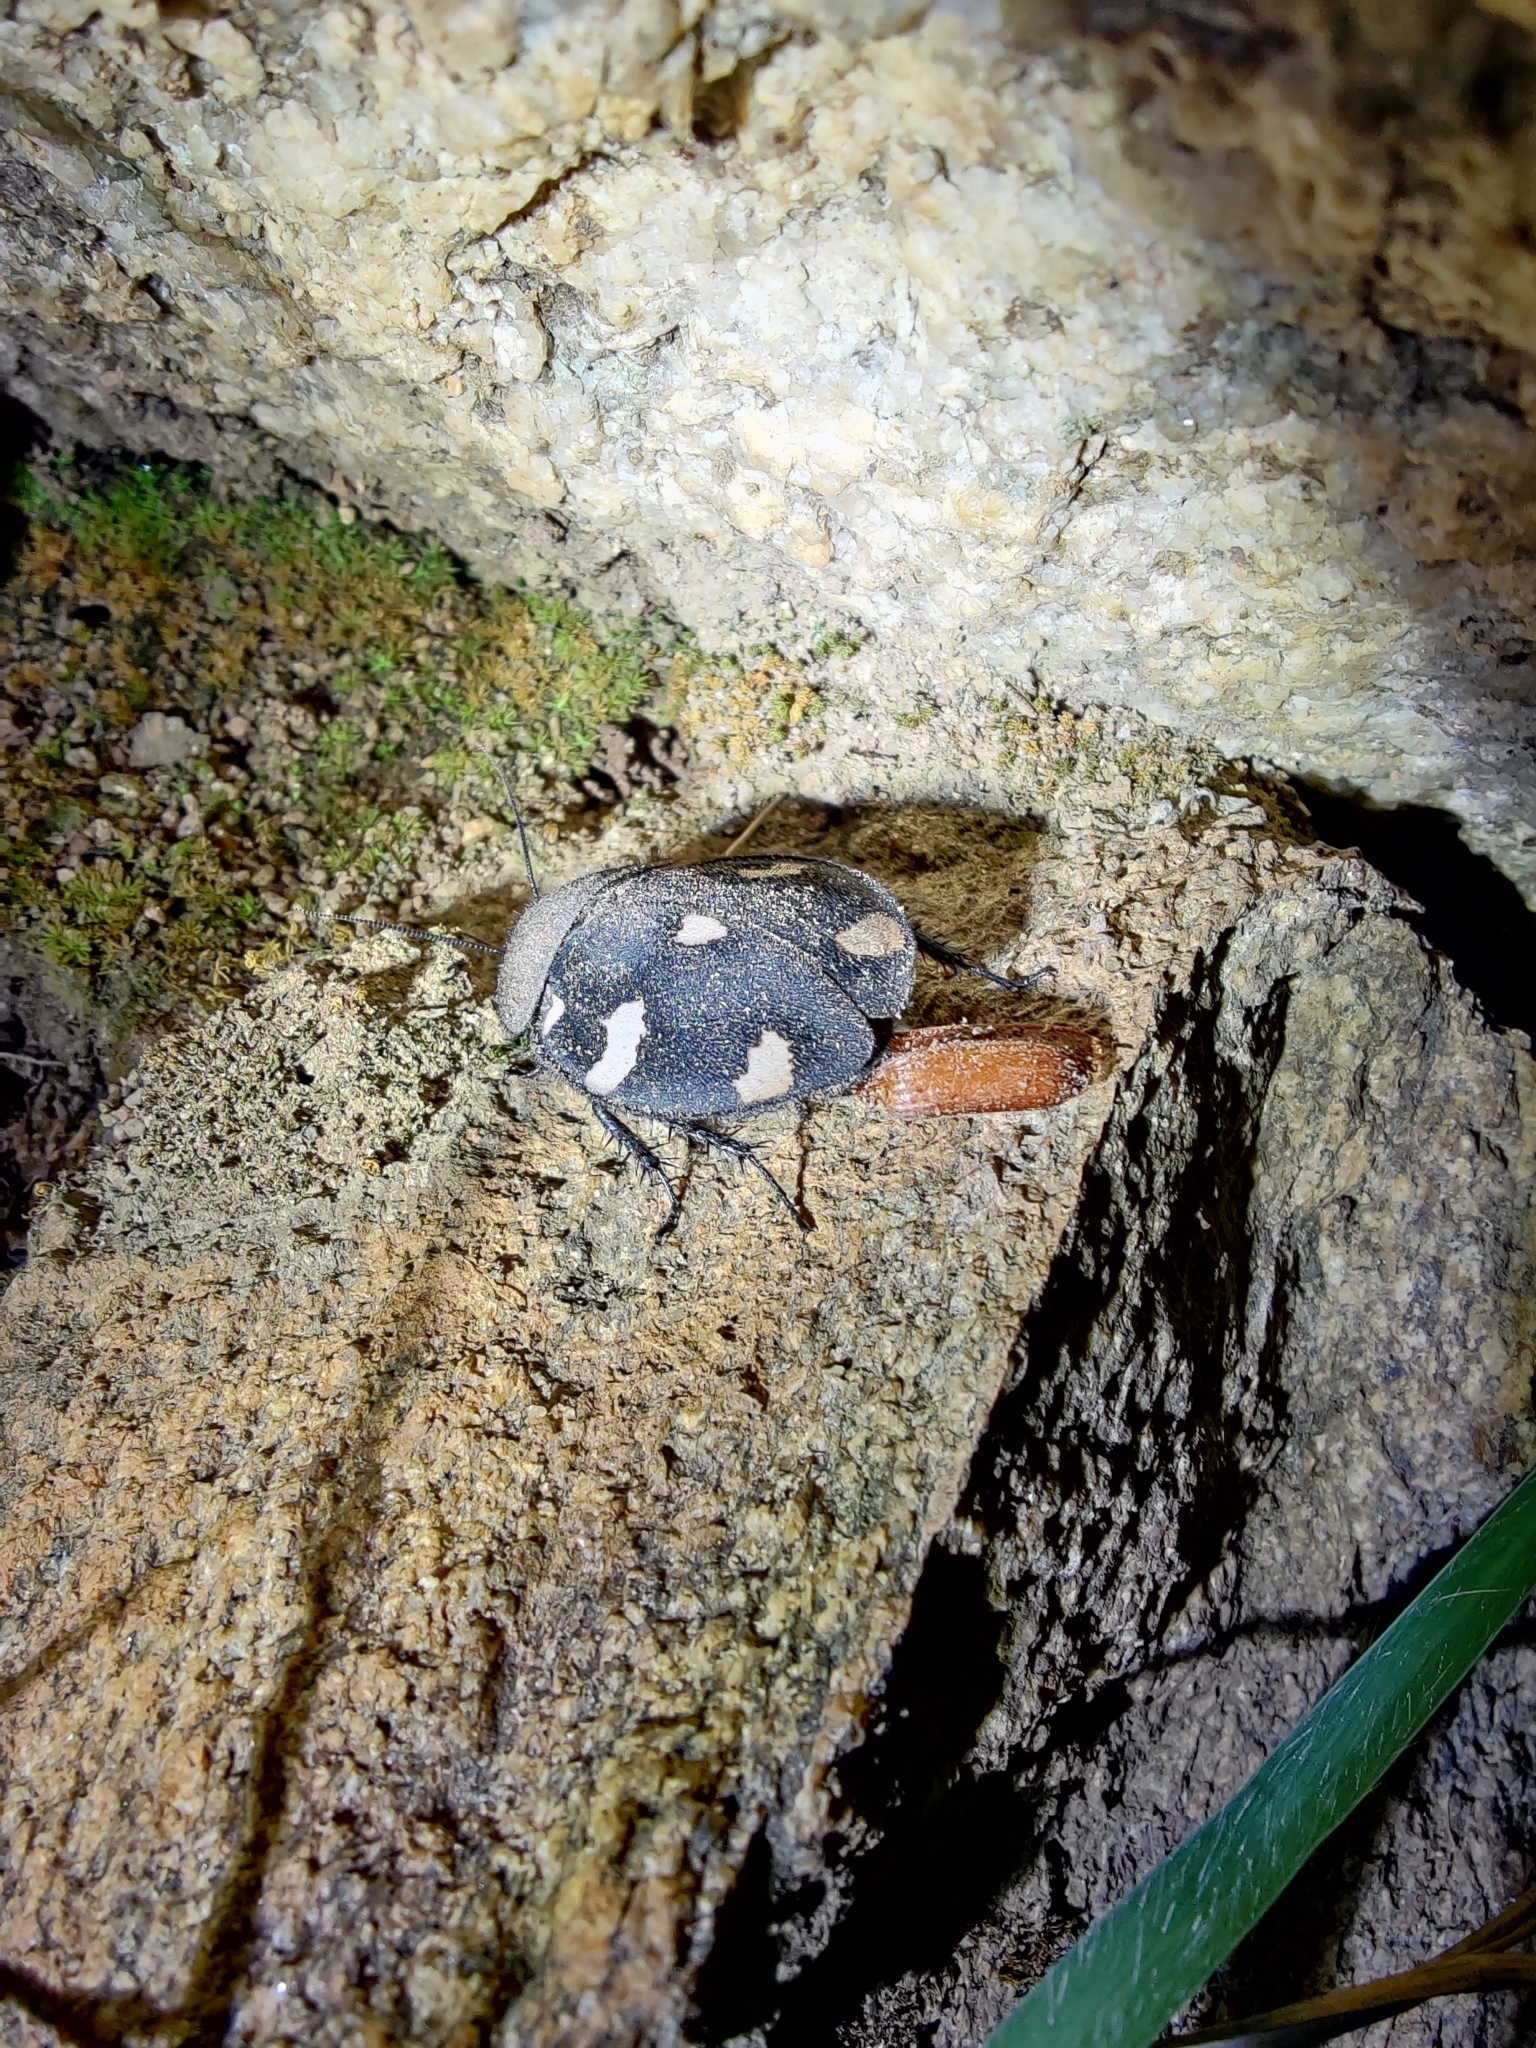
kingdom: Animalia
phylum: Arthropoda
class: Insecta
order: Blattodea
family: Corydiidae
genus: Therea
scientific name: Therea petiveriana
